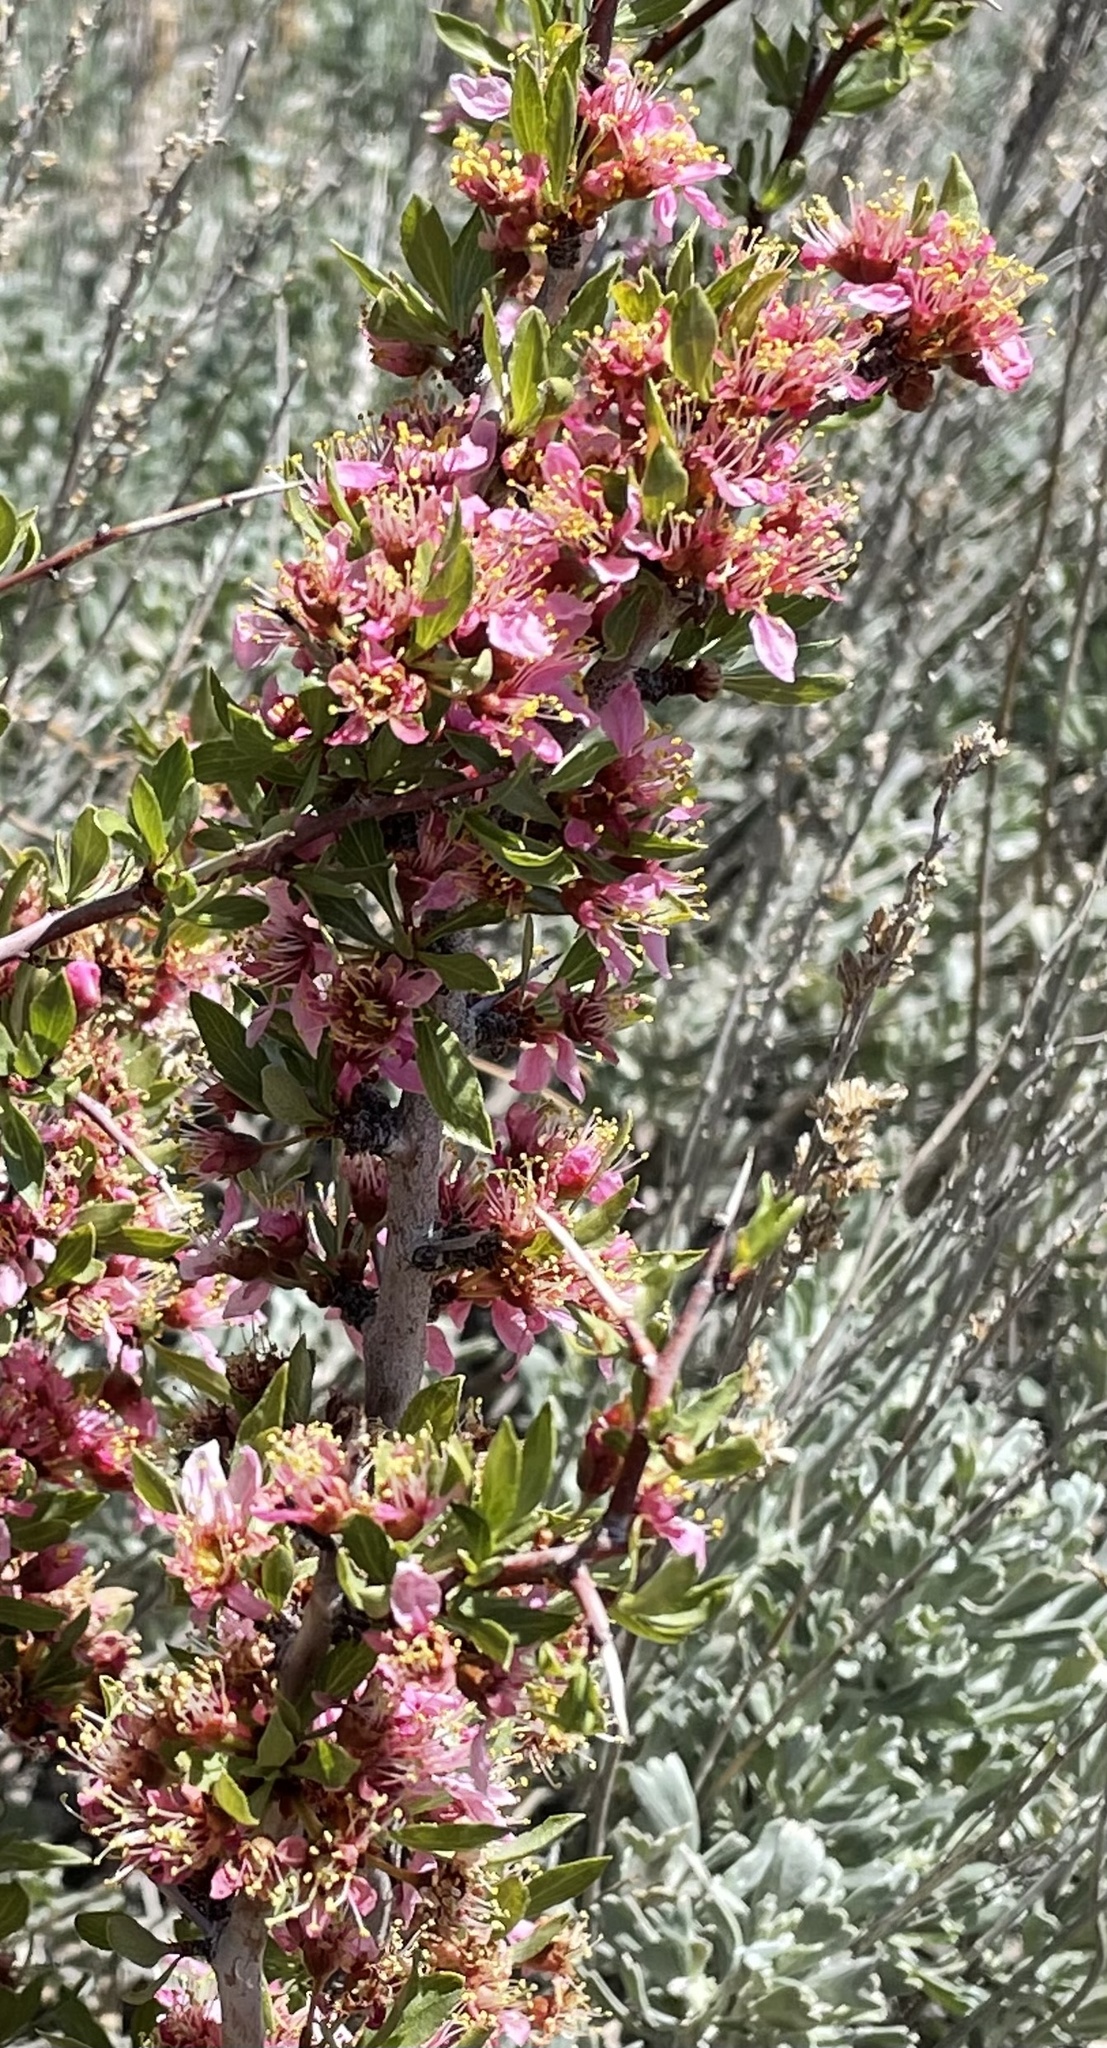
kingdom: Plantae
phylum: Tracheophyta
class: Magnoliopsida
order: Rosales
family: Rosaceae
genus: Prunus
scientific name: Prunus andersonii
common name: Desert peach
